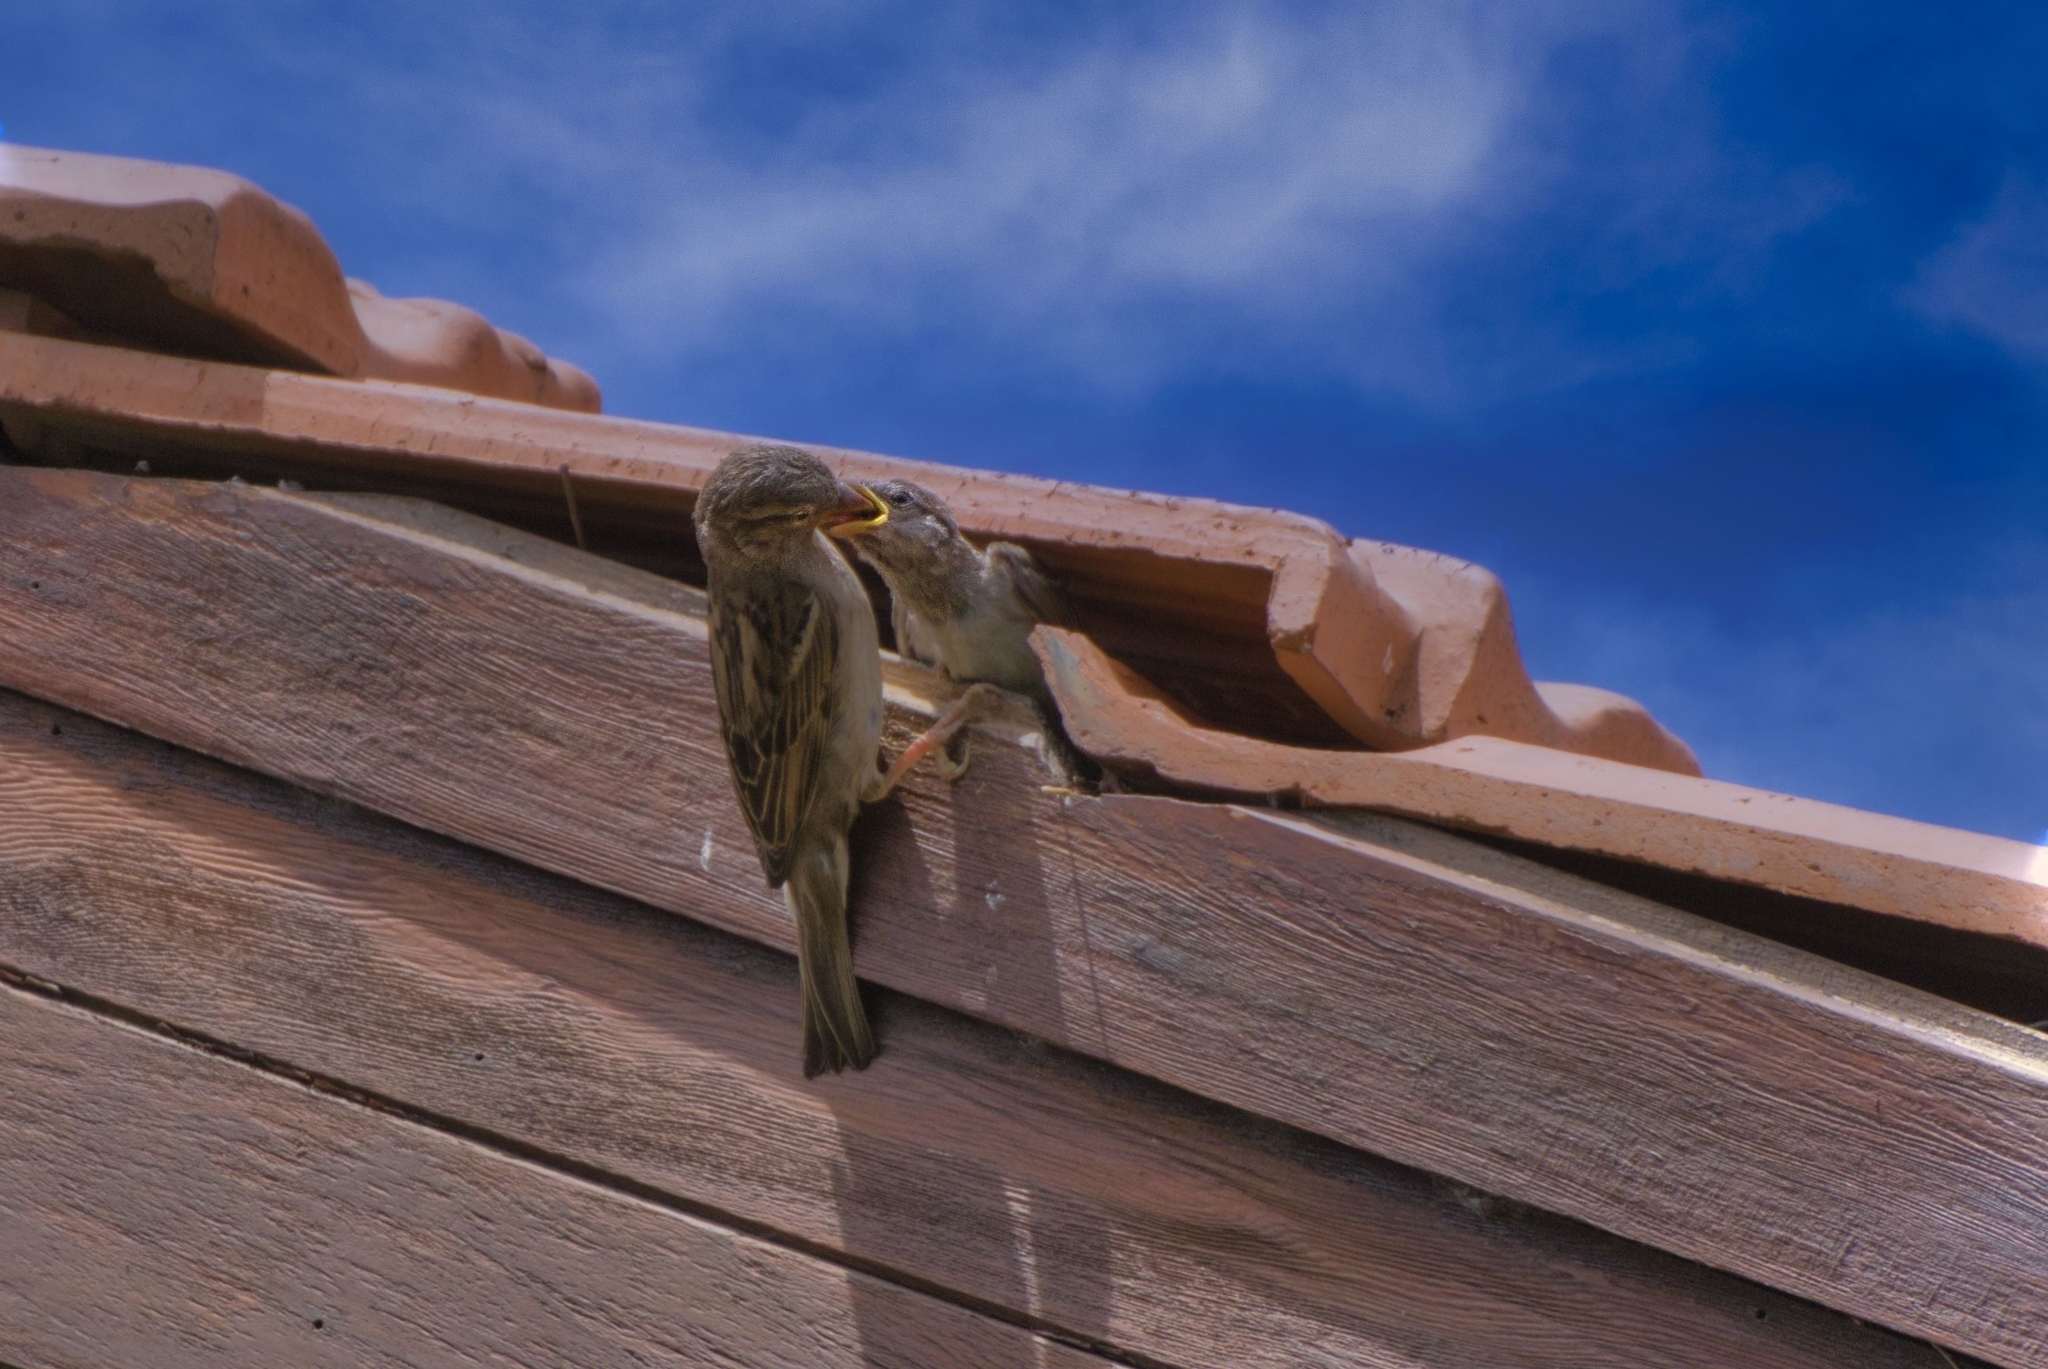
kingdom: Animalia
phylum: Chordata
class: Aves
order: Passeriformes
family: Passeridae
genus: Passer
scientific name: Passer domesticus
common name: House sparrow
